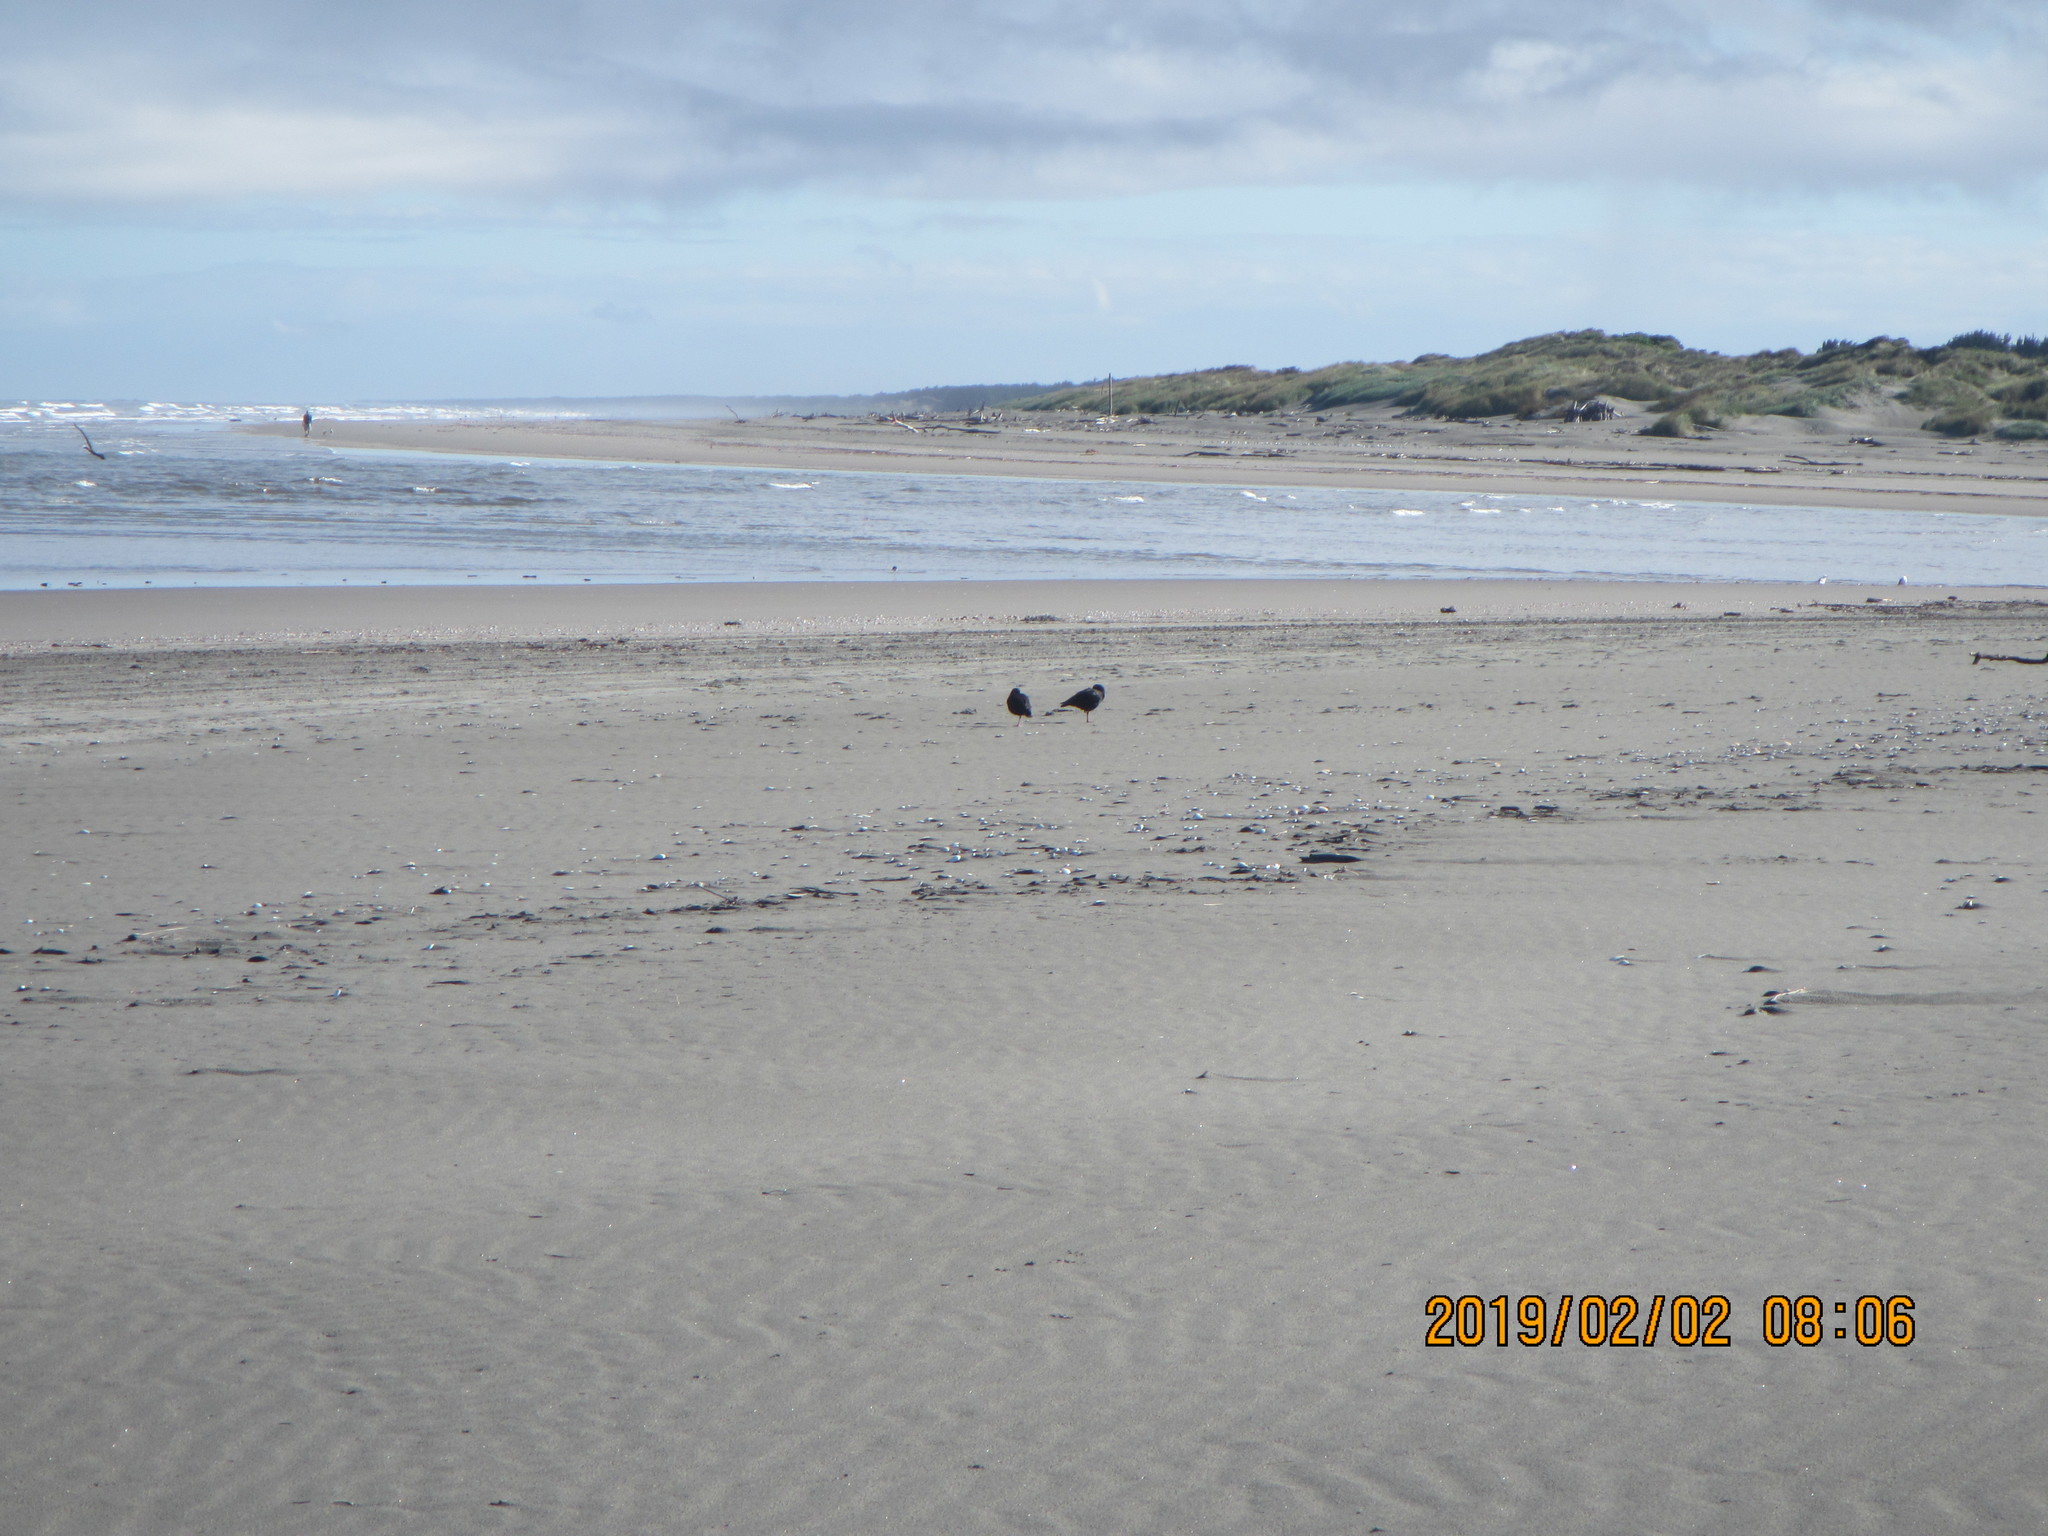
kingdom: Animalia
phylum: Chordata
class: Aves
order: Charadriiformes
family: Haematopodidae
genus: Haematopus
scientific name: Haematopus unicolor
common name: Variable oystercatcher
